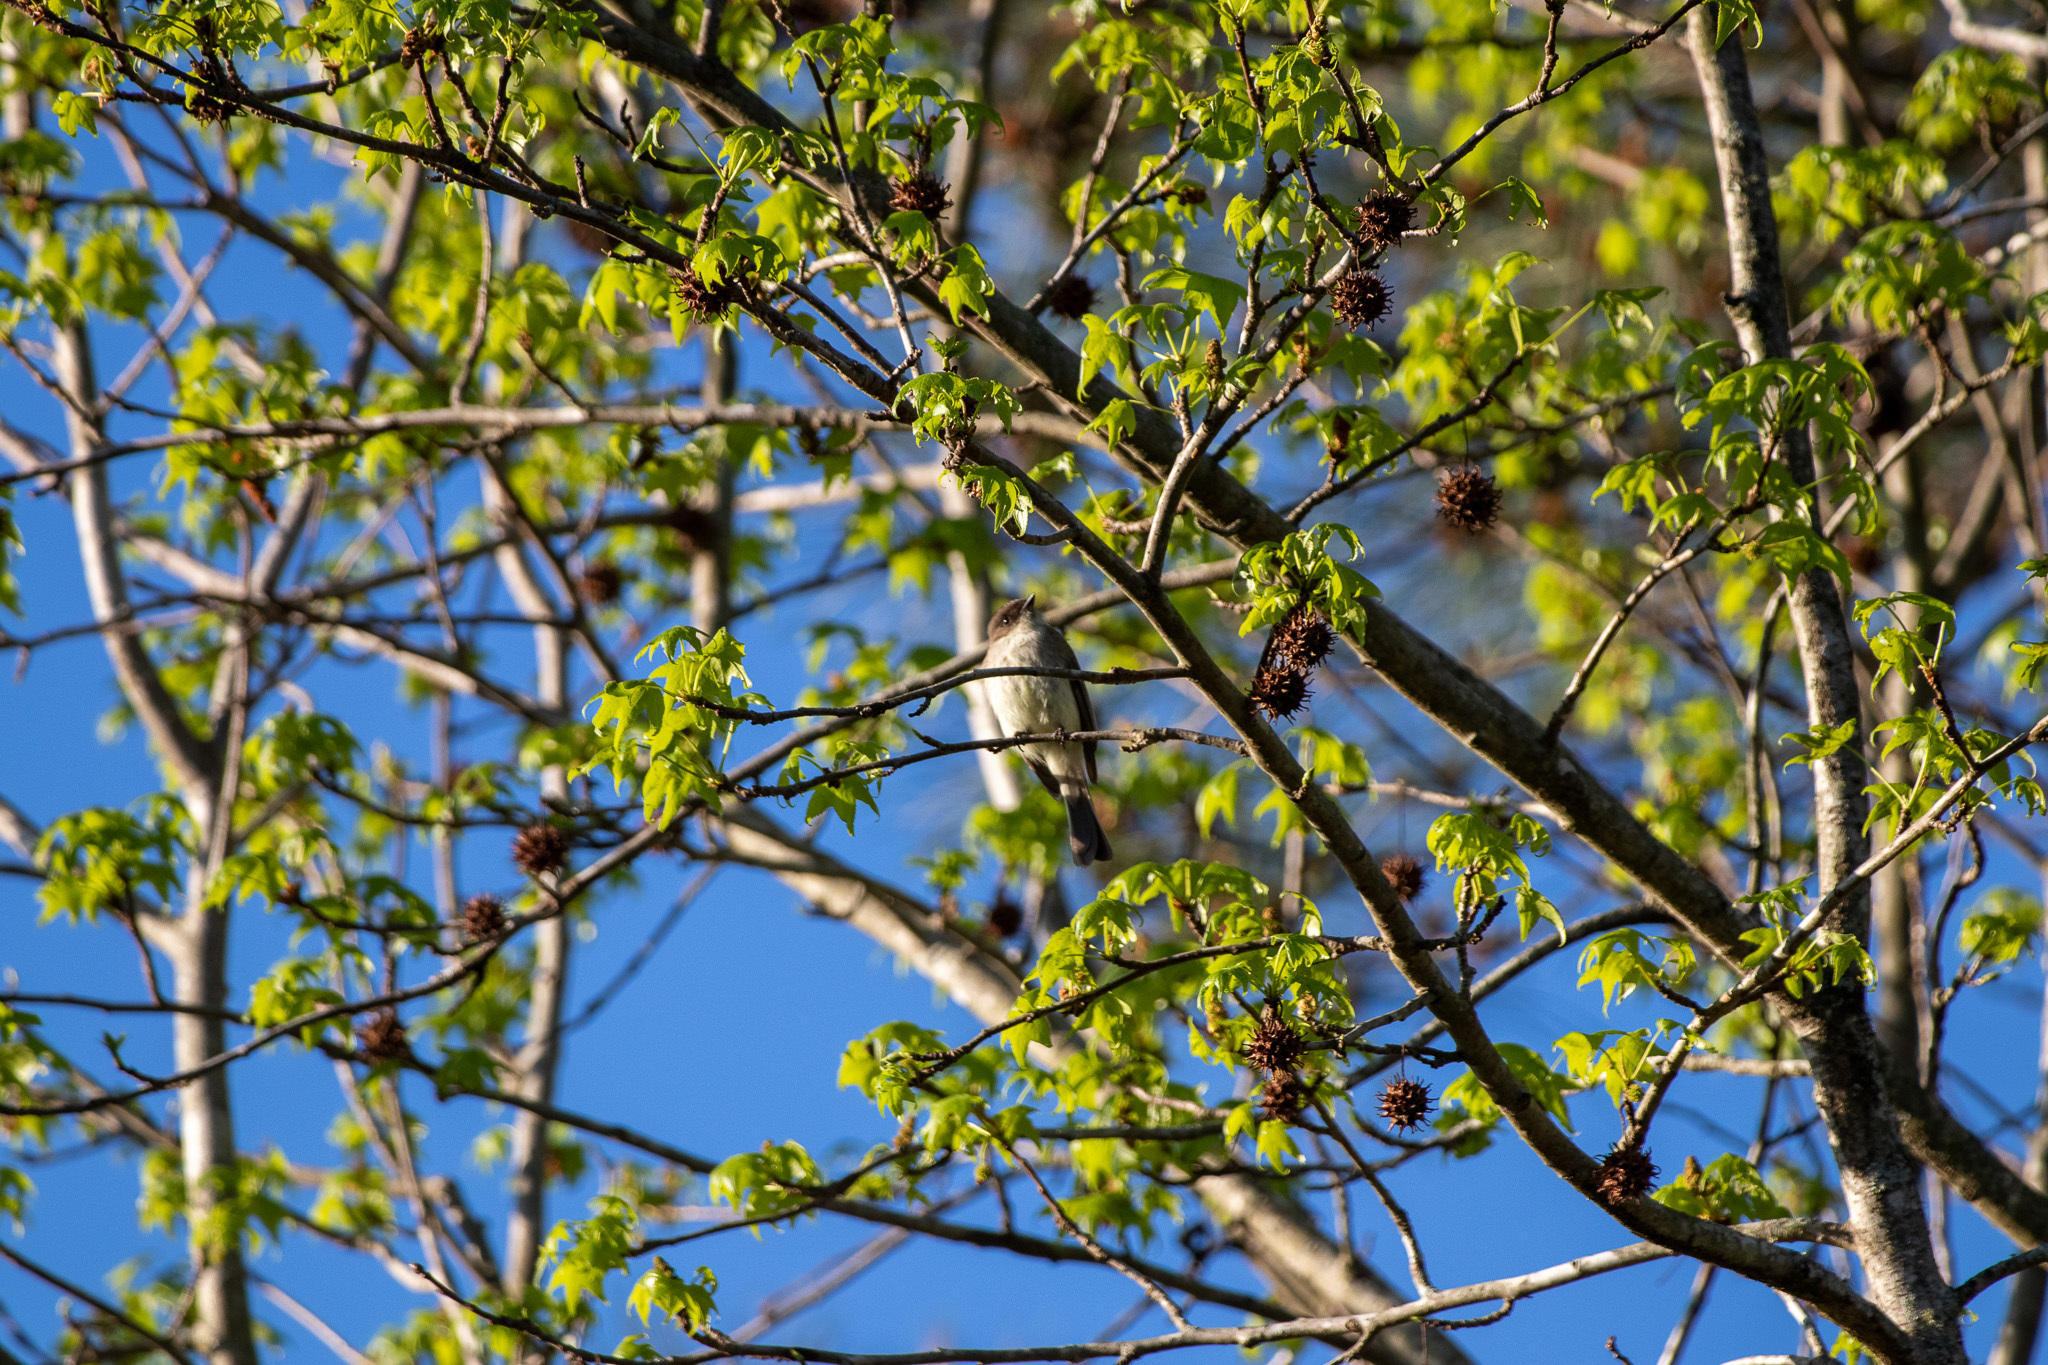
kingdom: Animalia
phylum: Chordata
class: Aves
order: Passeriformes
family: Tyrannidae
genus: Sayornis
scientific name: Sayornis phoebe
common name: Eastern phoebe
